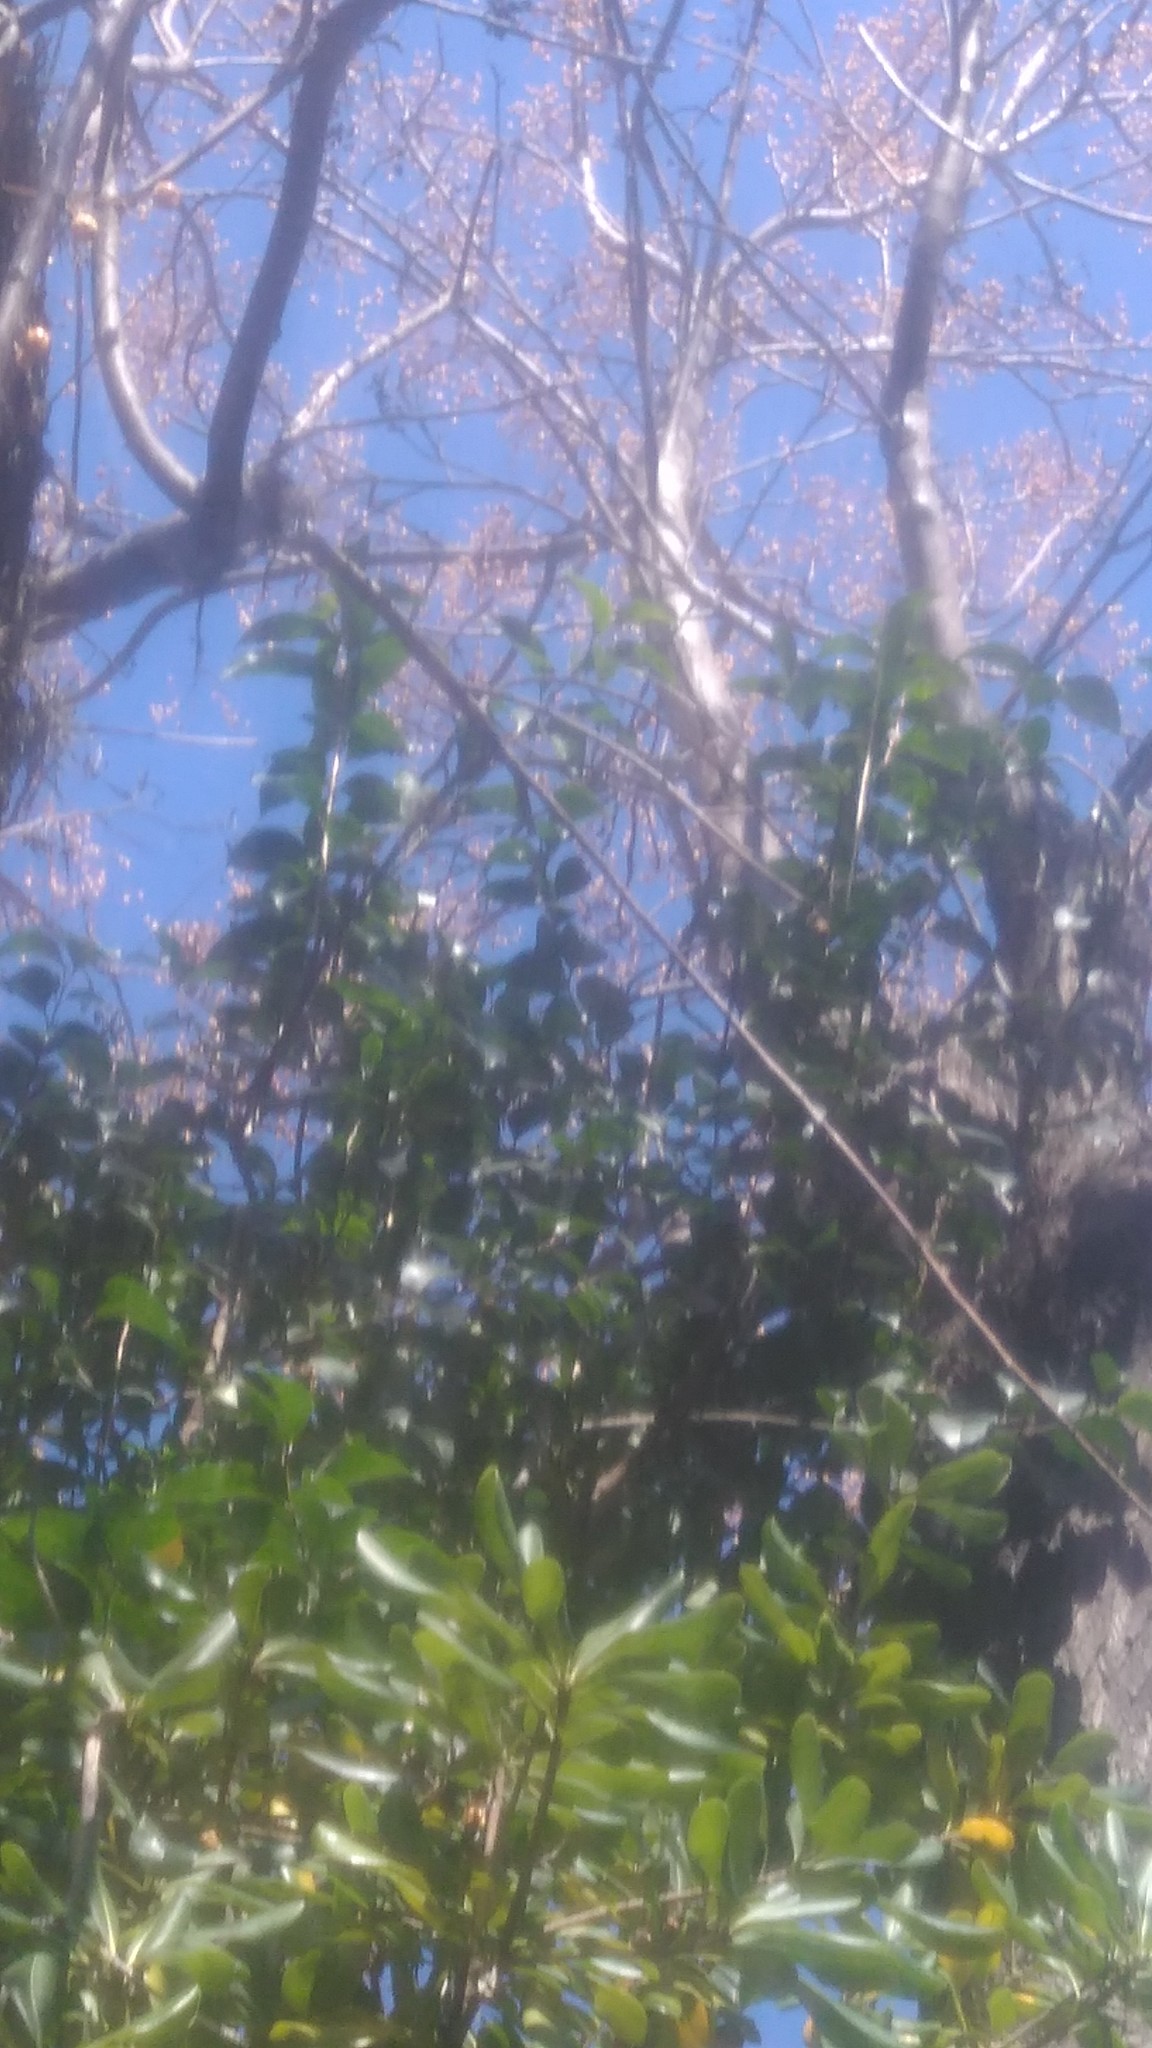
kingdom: Plantae
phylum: Tracheophyta
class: Magnoliopsida
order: Lamiales
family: Oleaceae
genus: Ligustrum
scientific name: Ligustrum lucidum
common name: Glossy privet
